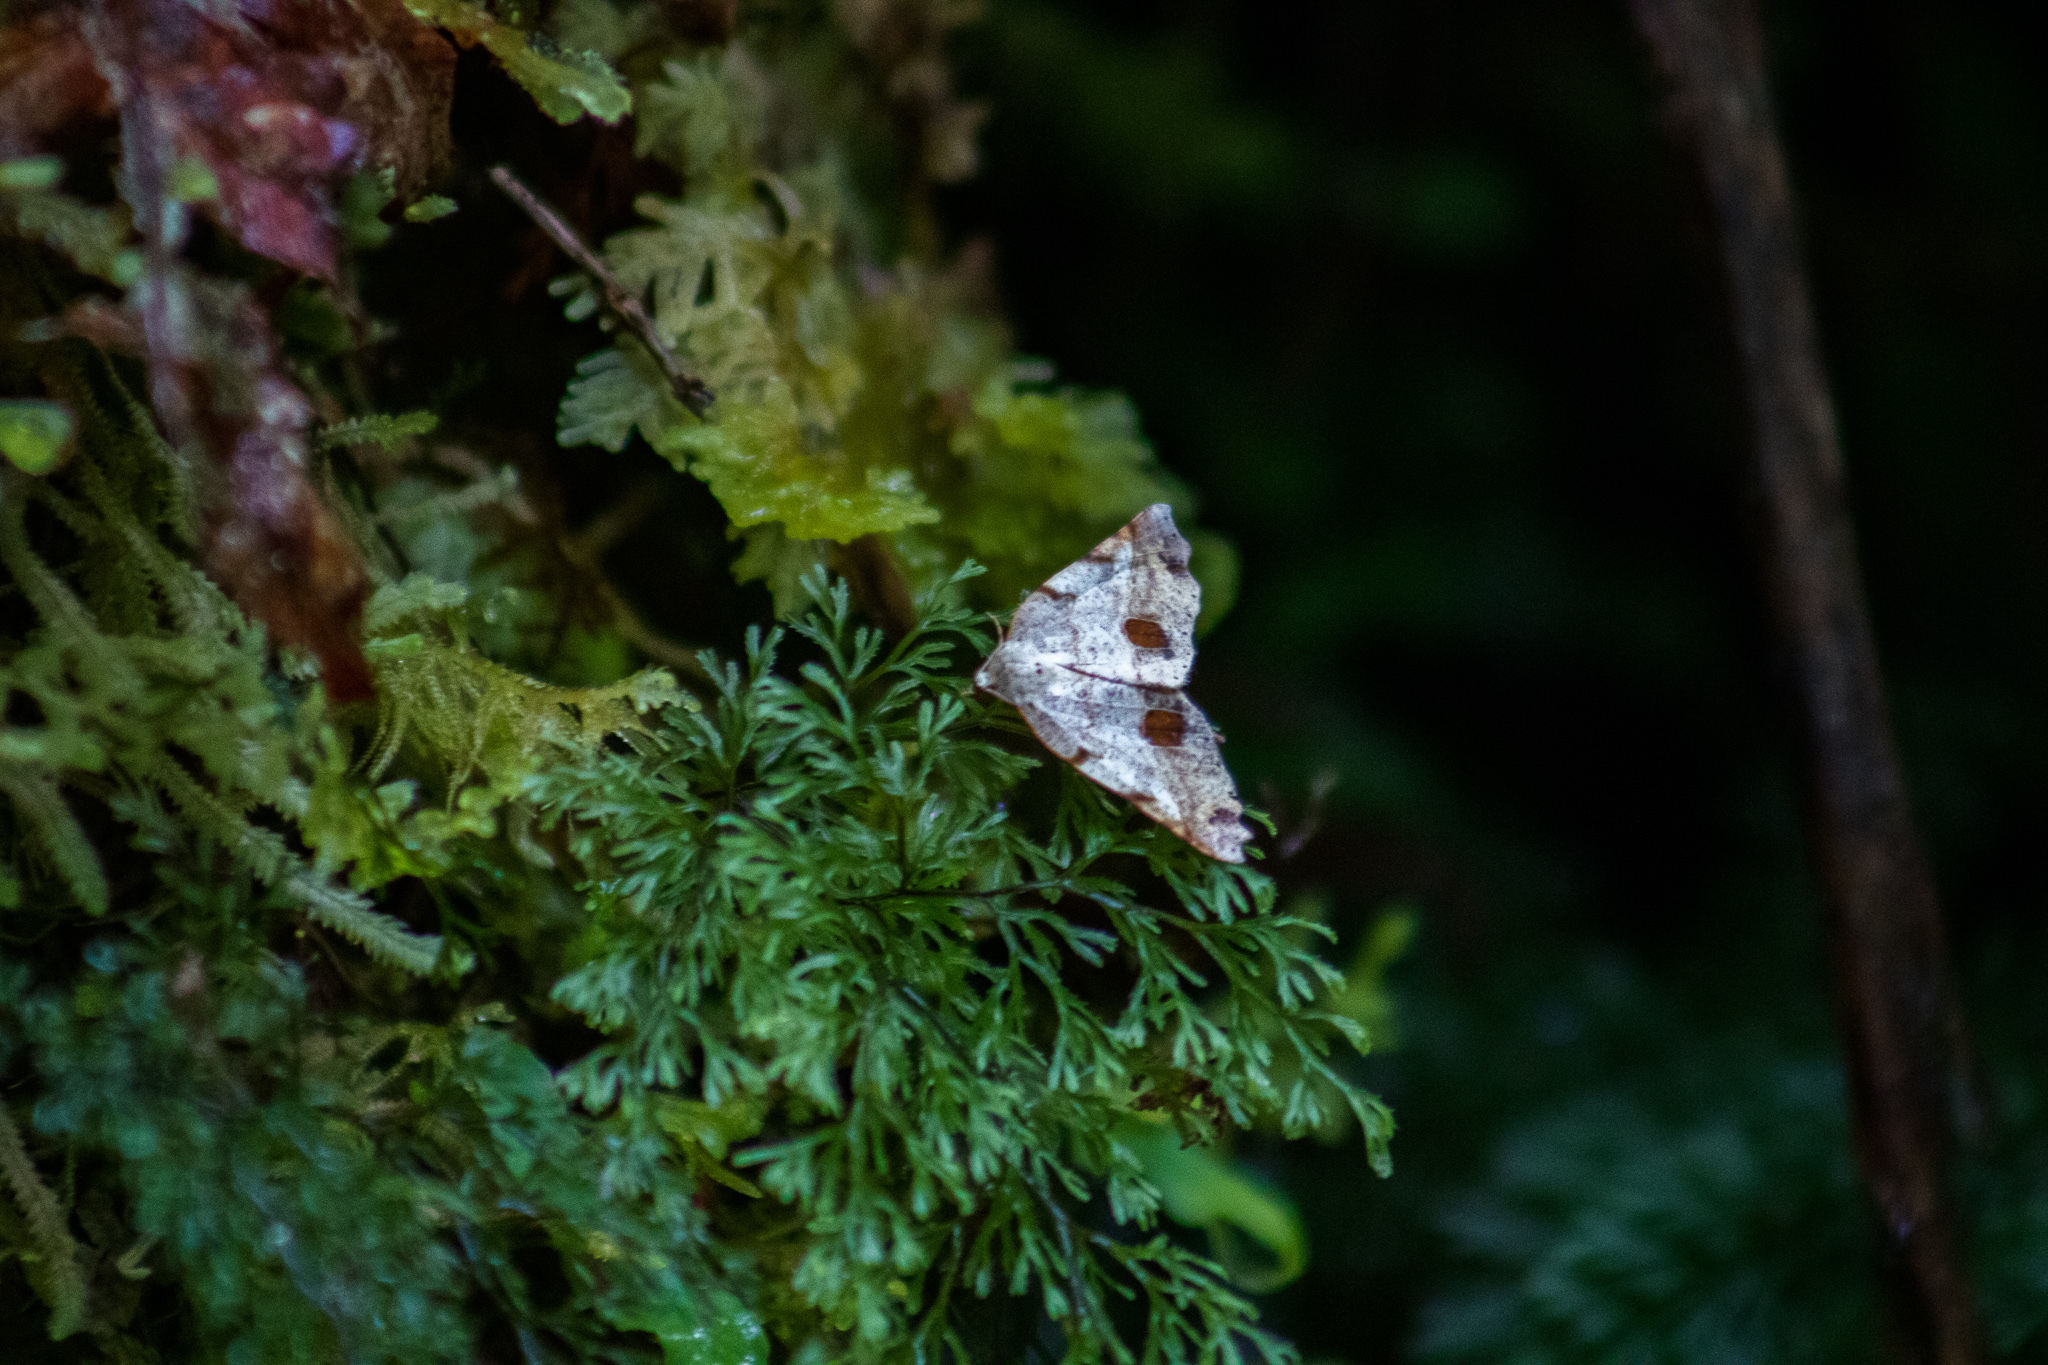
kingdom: Animalia
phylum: Arthropoda
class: Insecta
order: Lepidoptera
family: Geometridae
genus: Ischalis
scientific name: Ischalis gallaria
